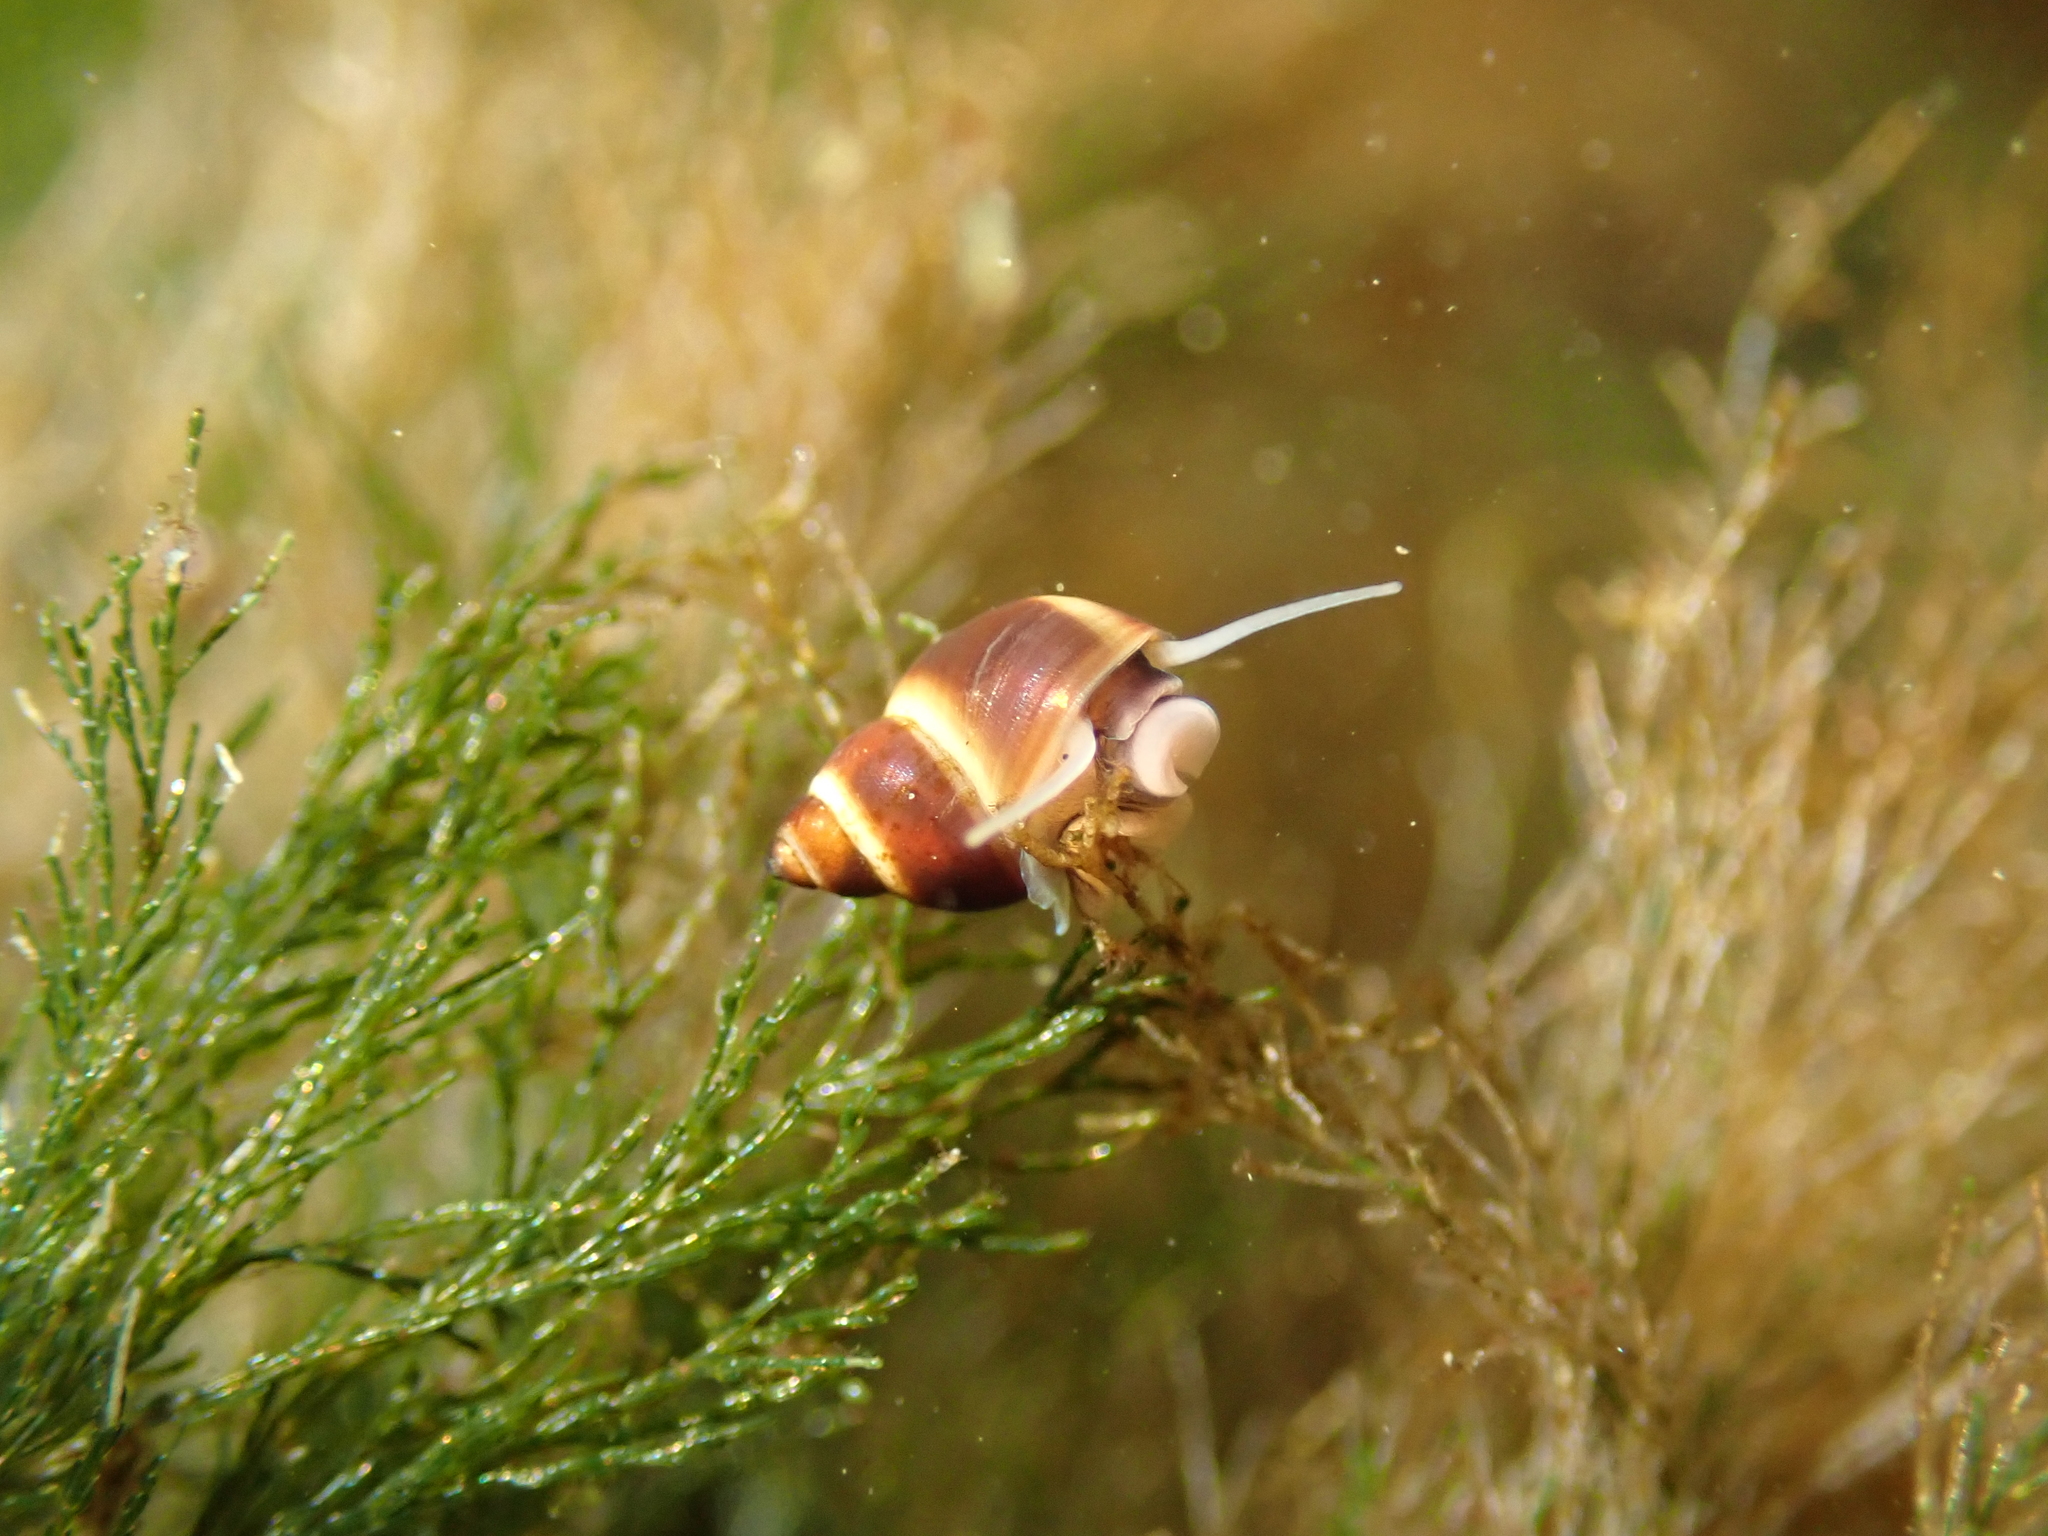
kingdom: Animalia
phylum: Mollusca
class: Gastropoda
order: Littorinimorpha
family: Littorinidae
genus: Lacuna
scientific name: Lacuna vincta
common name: Banded chink shell
